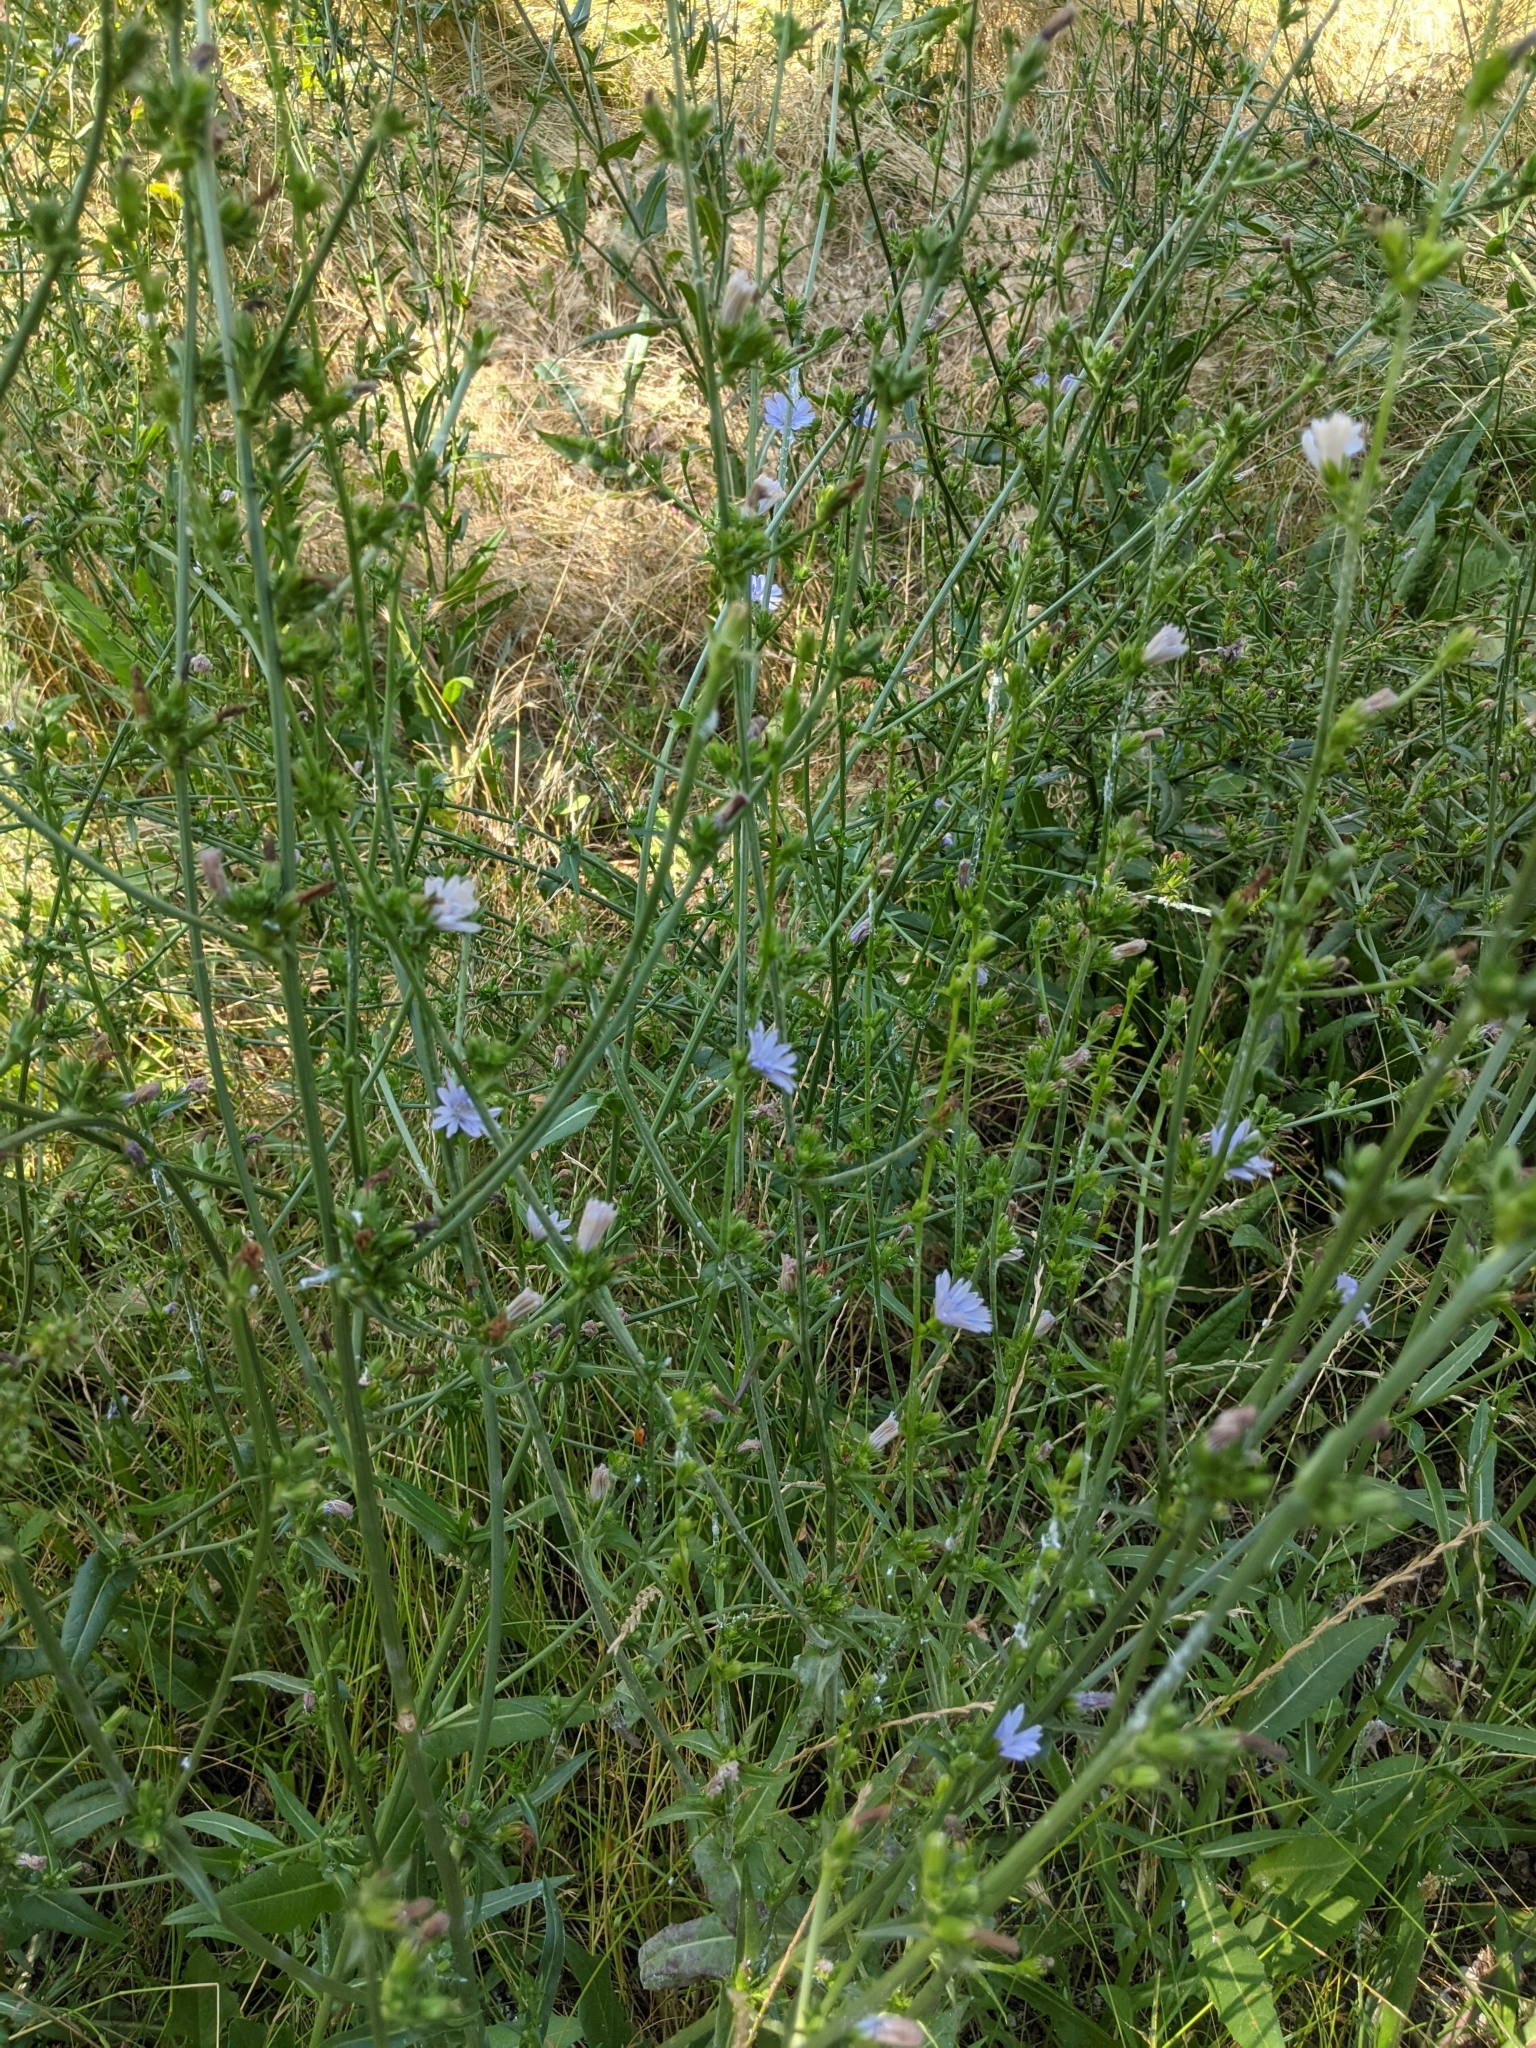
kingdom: Plantae
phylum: Tracheophyta
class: Magnoliopsida
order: Asterales
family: Asteraceae
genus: Cichorium
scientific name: Cichorium intybus
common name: Chicory
